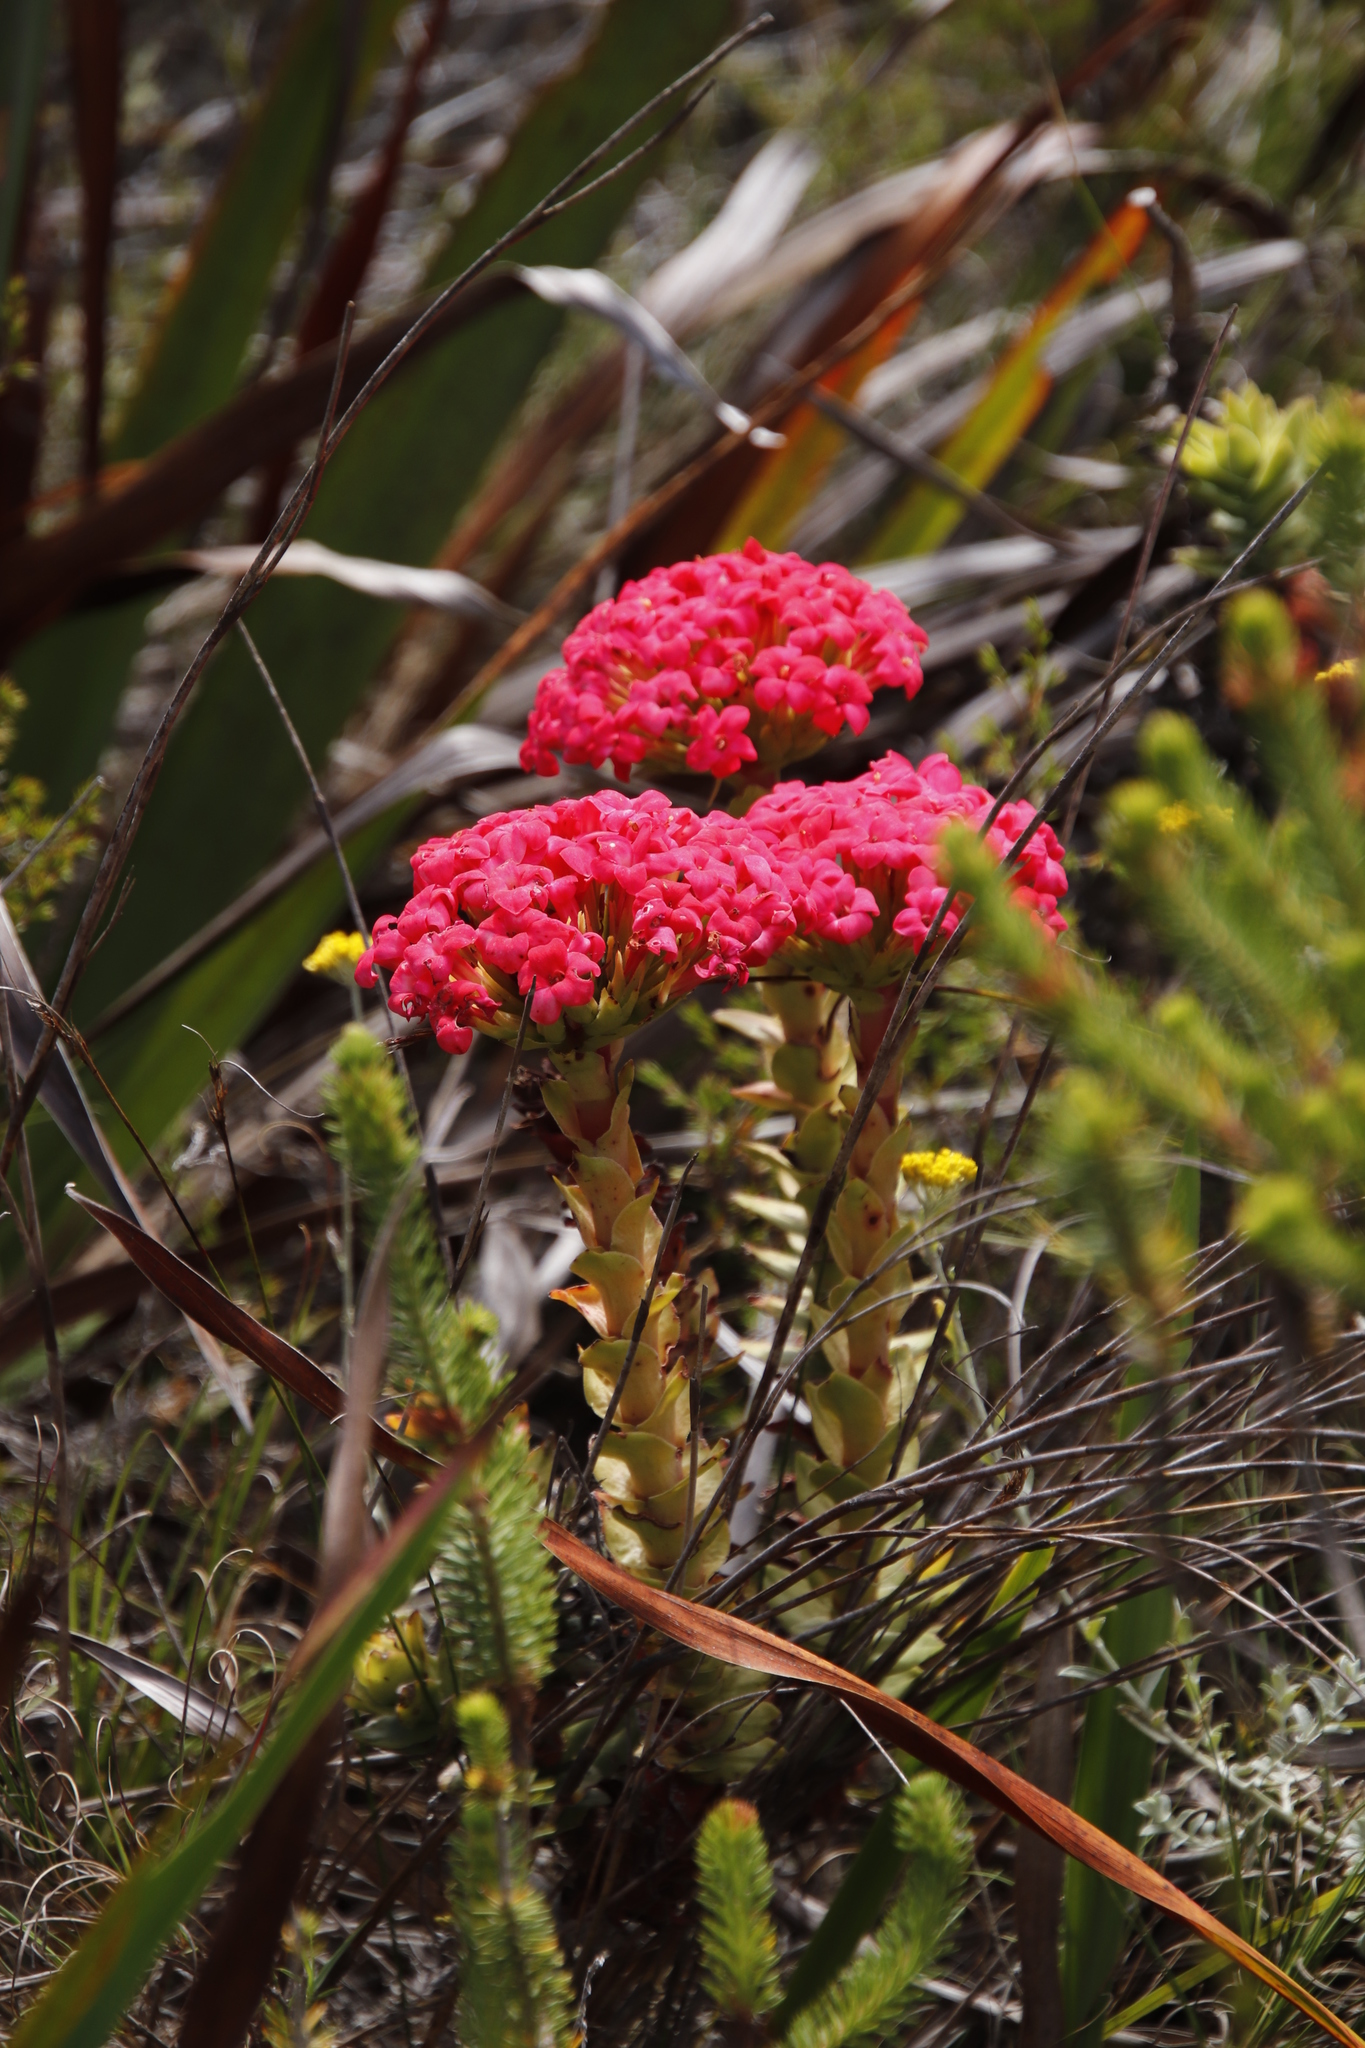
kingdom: Plantae
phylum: Tracheophyta
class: Magnoliopsida
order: Saxifragales
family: Crassulaceae
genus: Crassula
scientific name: Crassula coccinea
